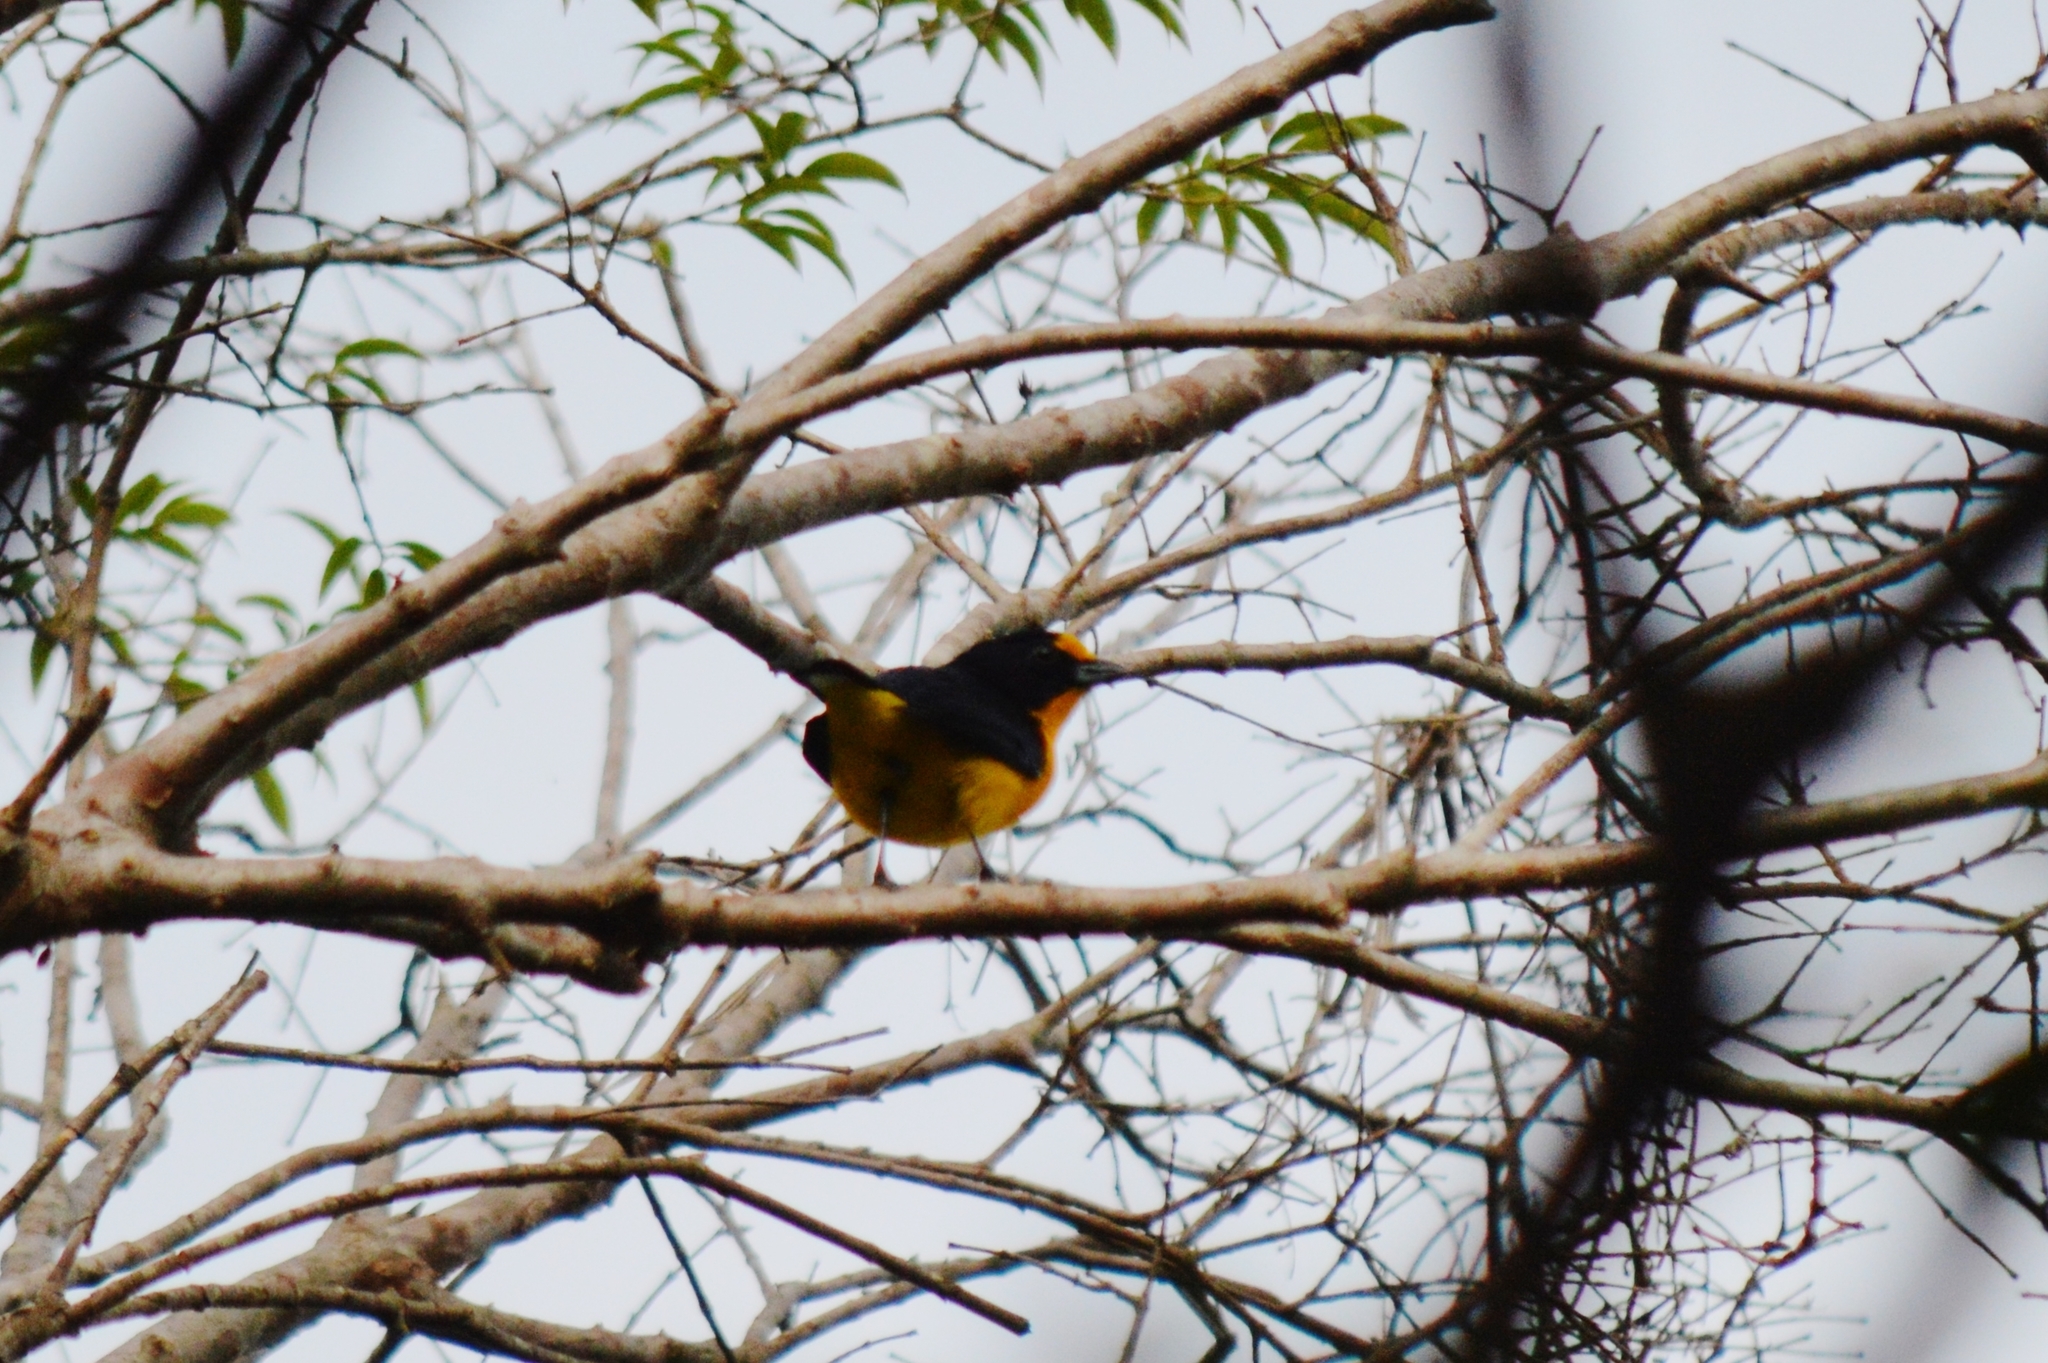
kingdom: Animalia
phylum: Chordata
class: Aves
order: Passeriformes
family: Fringillidae
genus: Euphonia
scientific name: Euphonia violacea
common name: Violaceous euphonia
